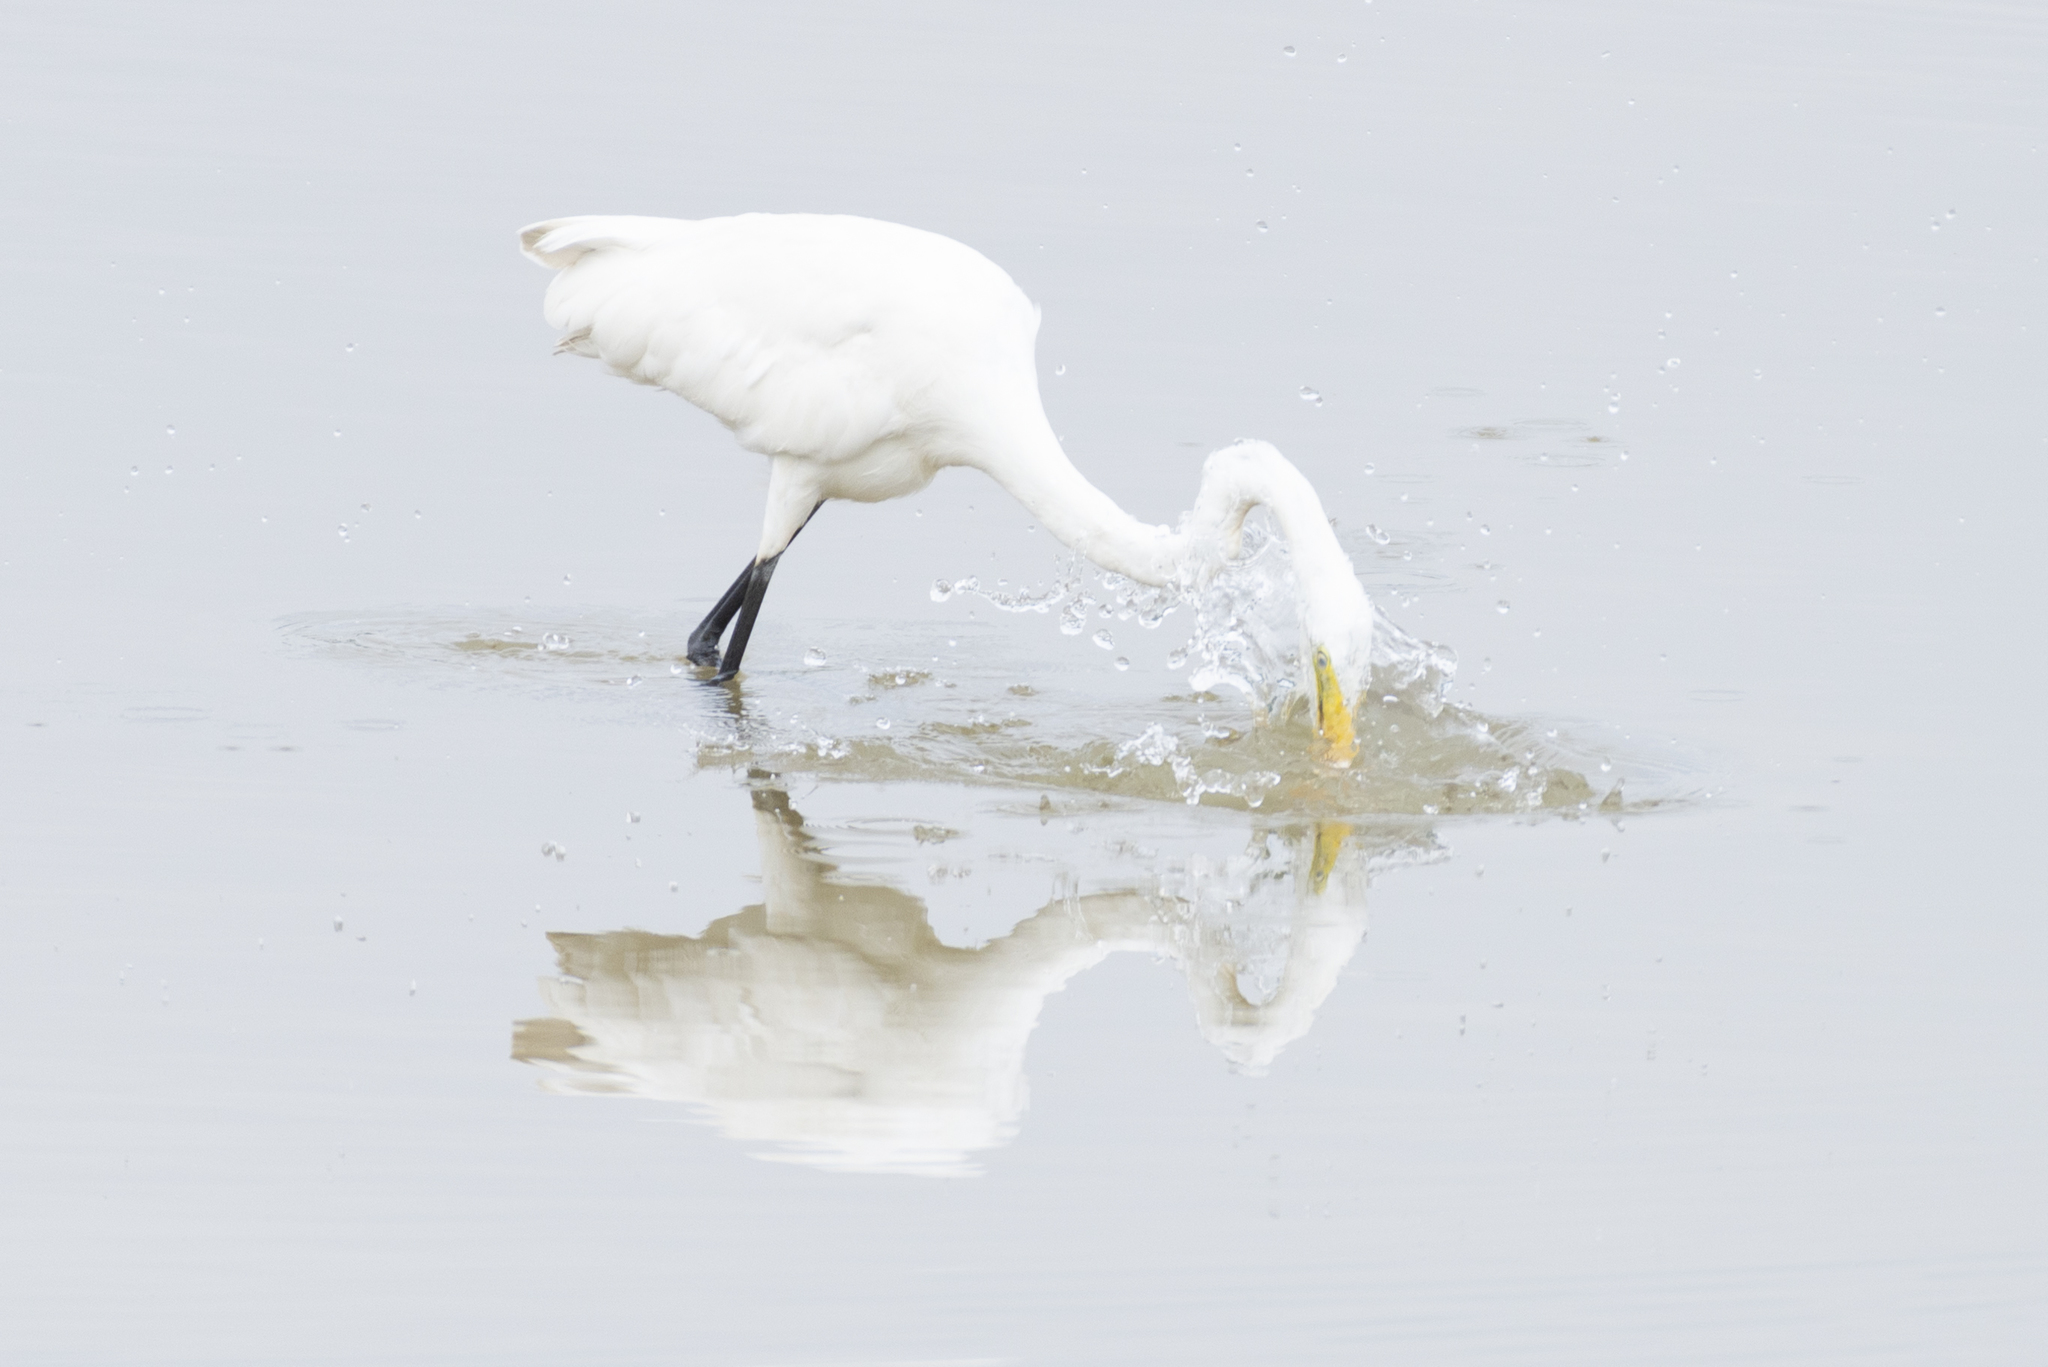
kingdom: Animalia
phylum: Chordata
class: Aves
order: Pelecaniformes
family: Ardeidae
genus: Ardea
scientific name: Ardea alba
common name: Great egret
